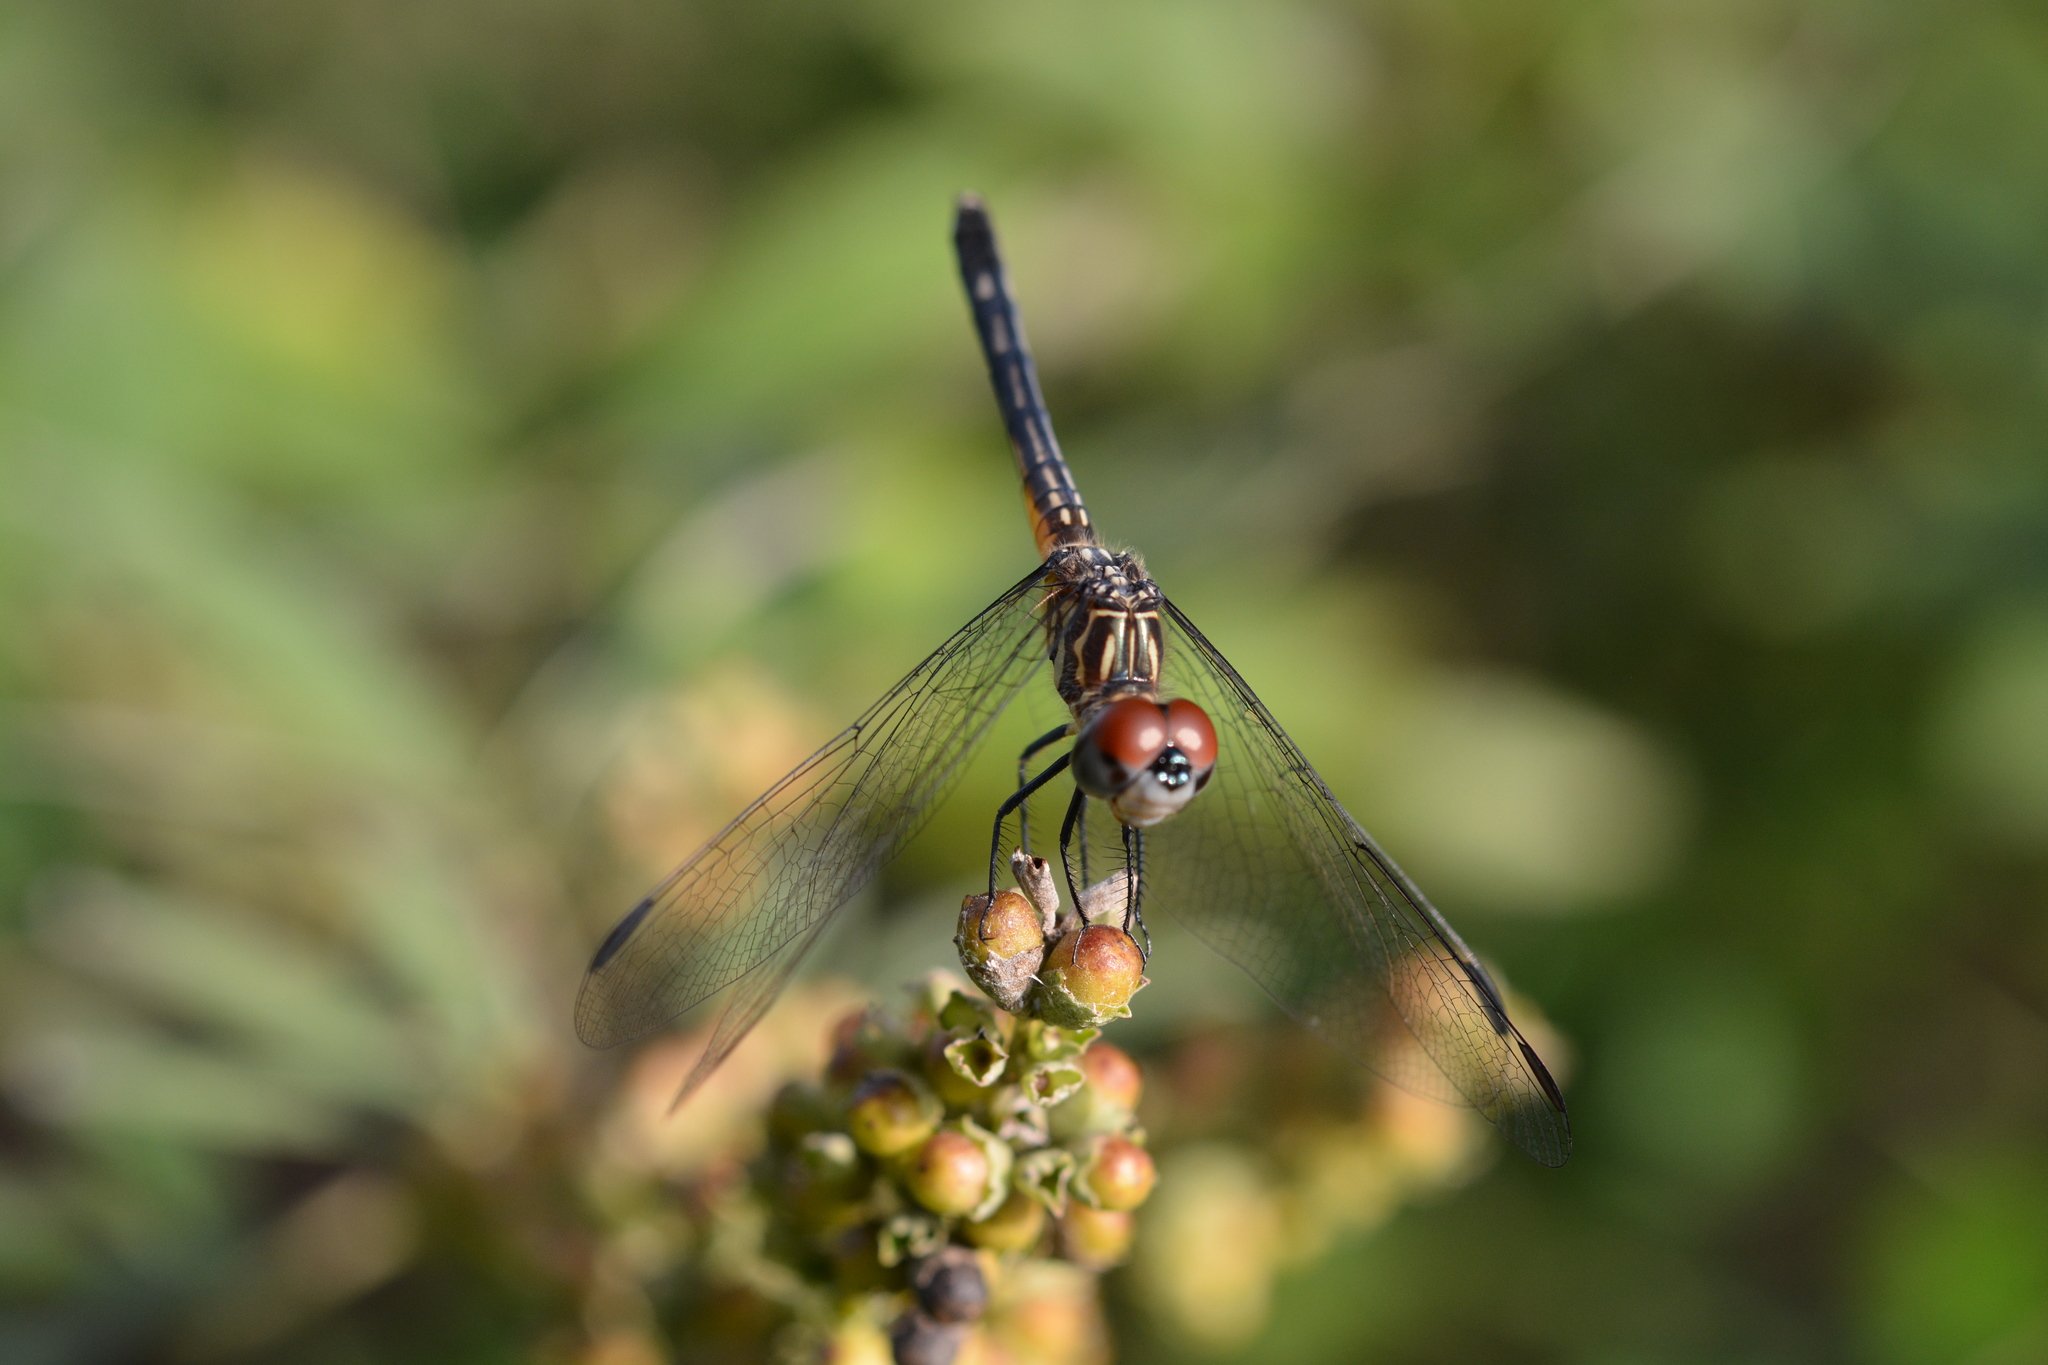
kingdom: Animalia
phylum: Arthropoda
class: Insecta
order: Odonata
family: Libellulidae
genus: Pachydiplax
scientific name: Pachydiplax longipennis
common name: Blue dasher
